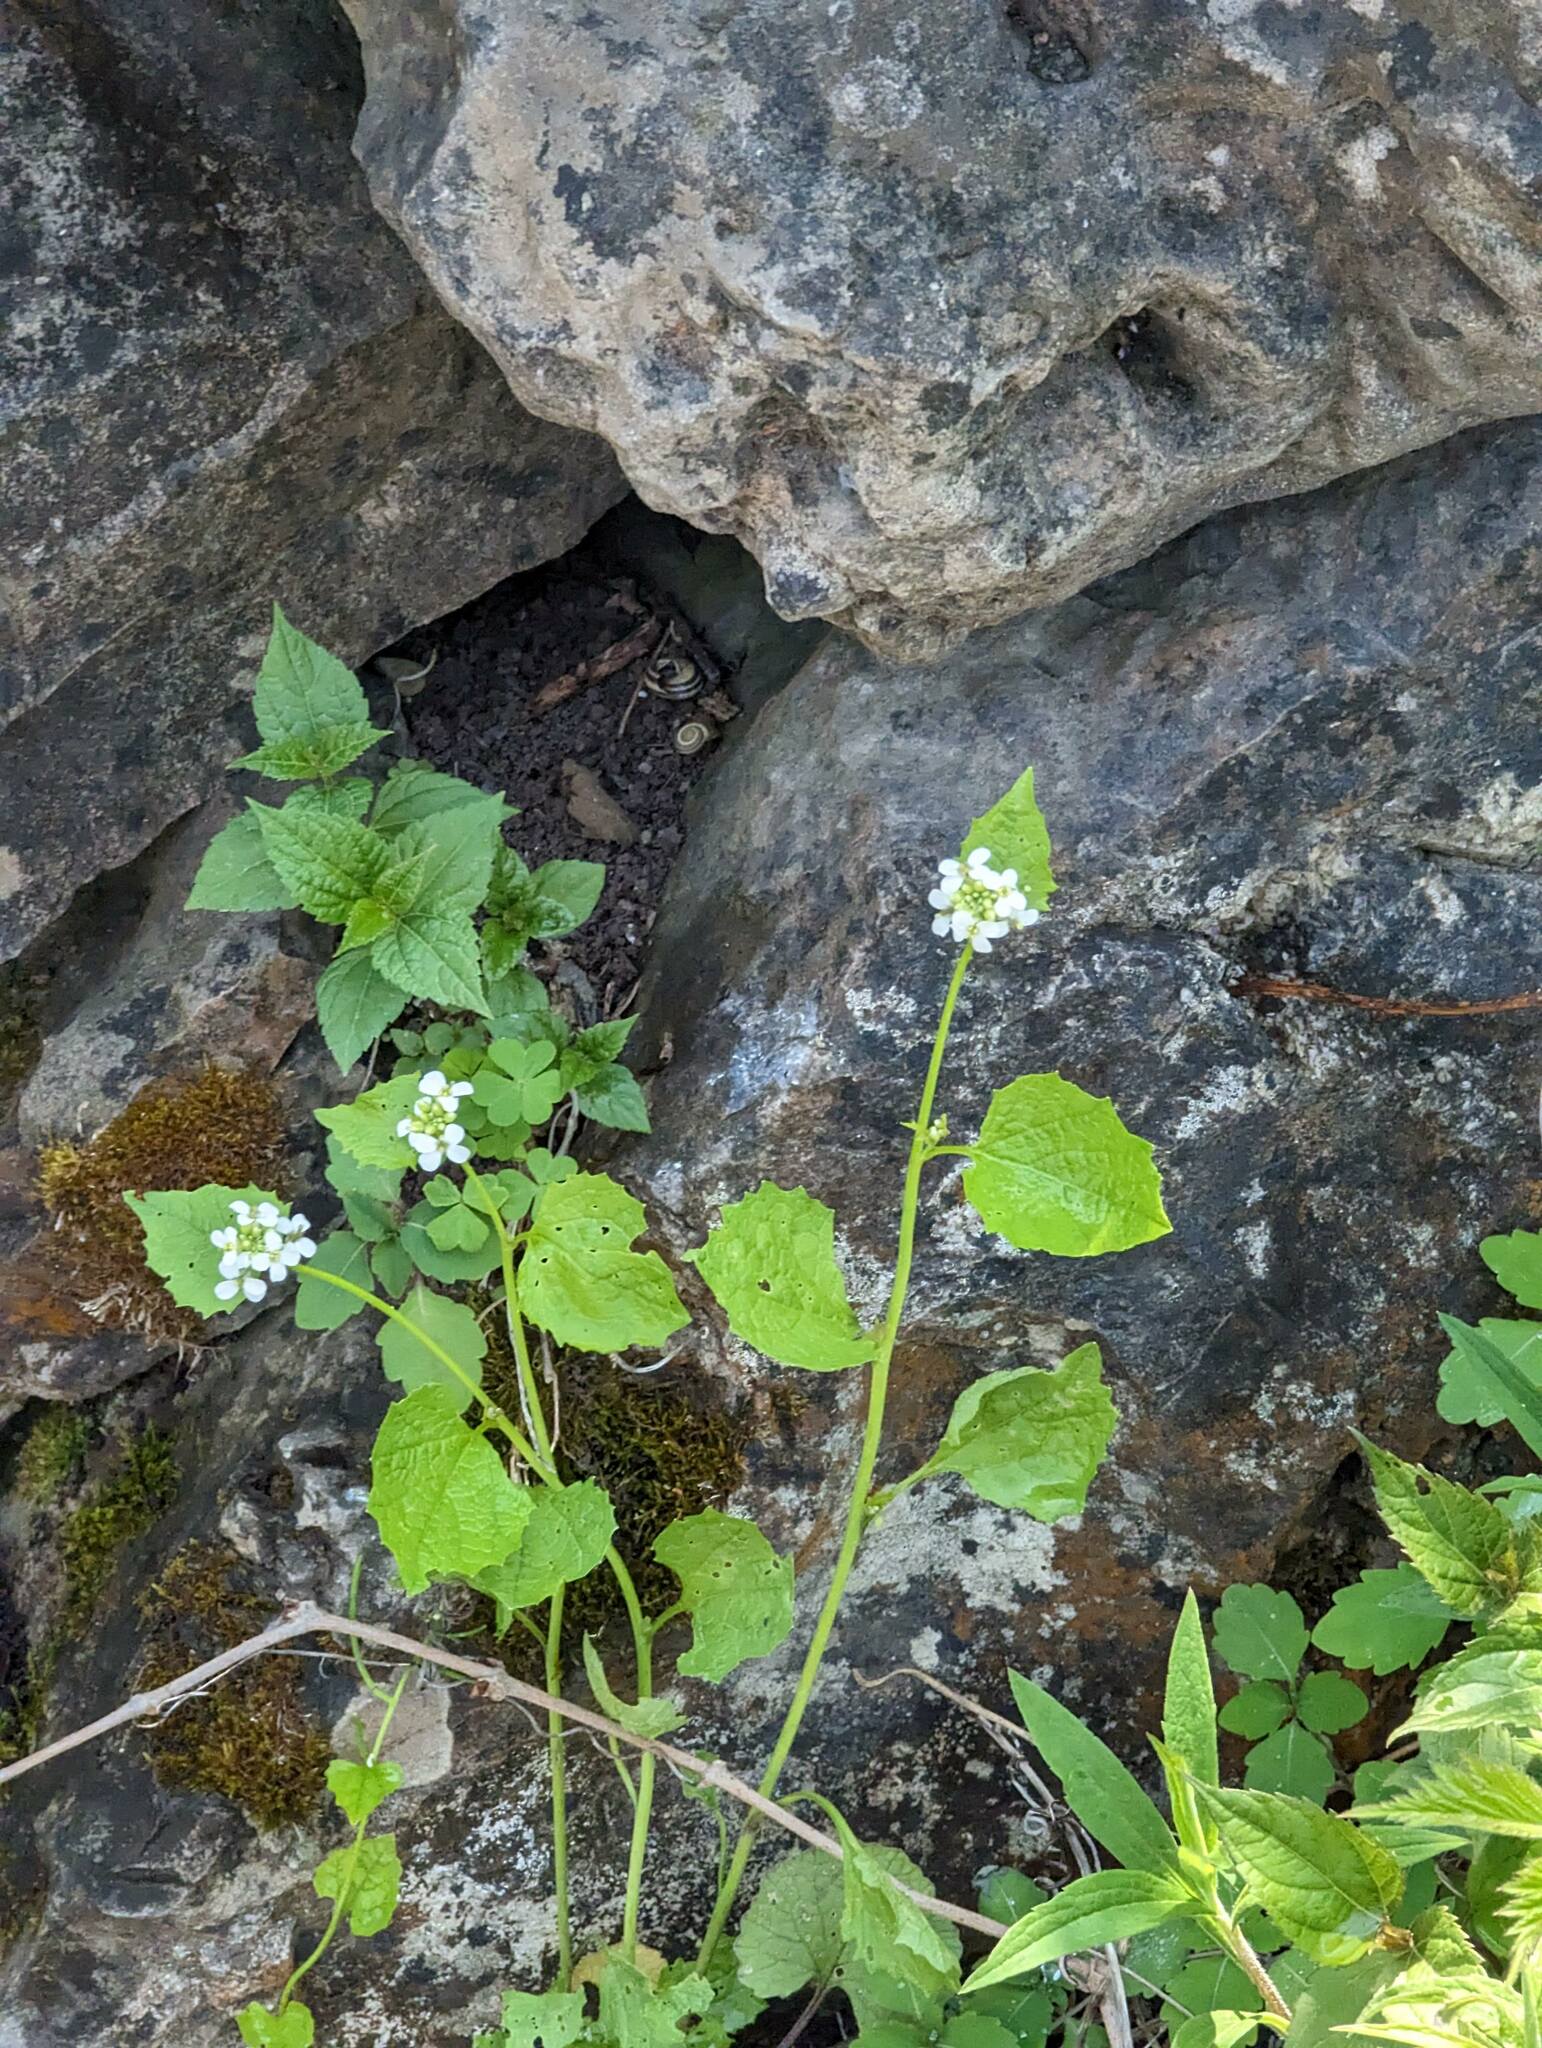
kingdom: Plantae
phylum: Tracheophyta
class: Magnoliopsida
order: Brassicales
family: Brassicaceae
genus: Alliaria
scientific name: Alliaria petiolata
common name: Garlic mustard
